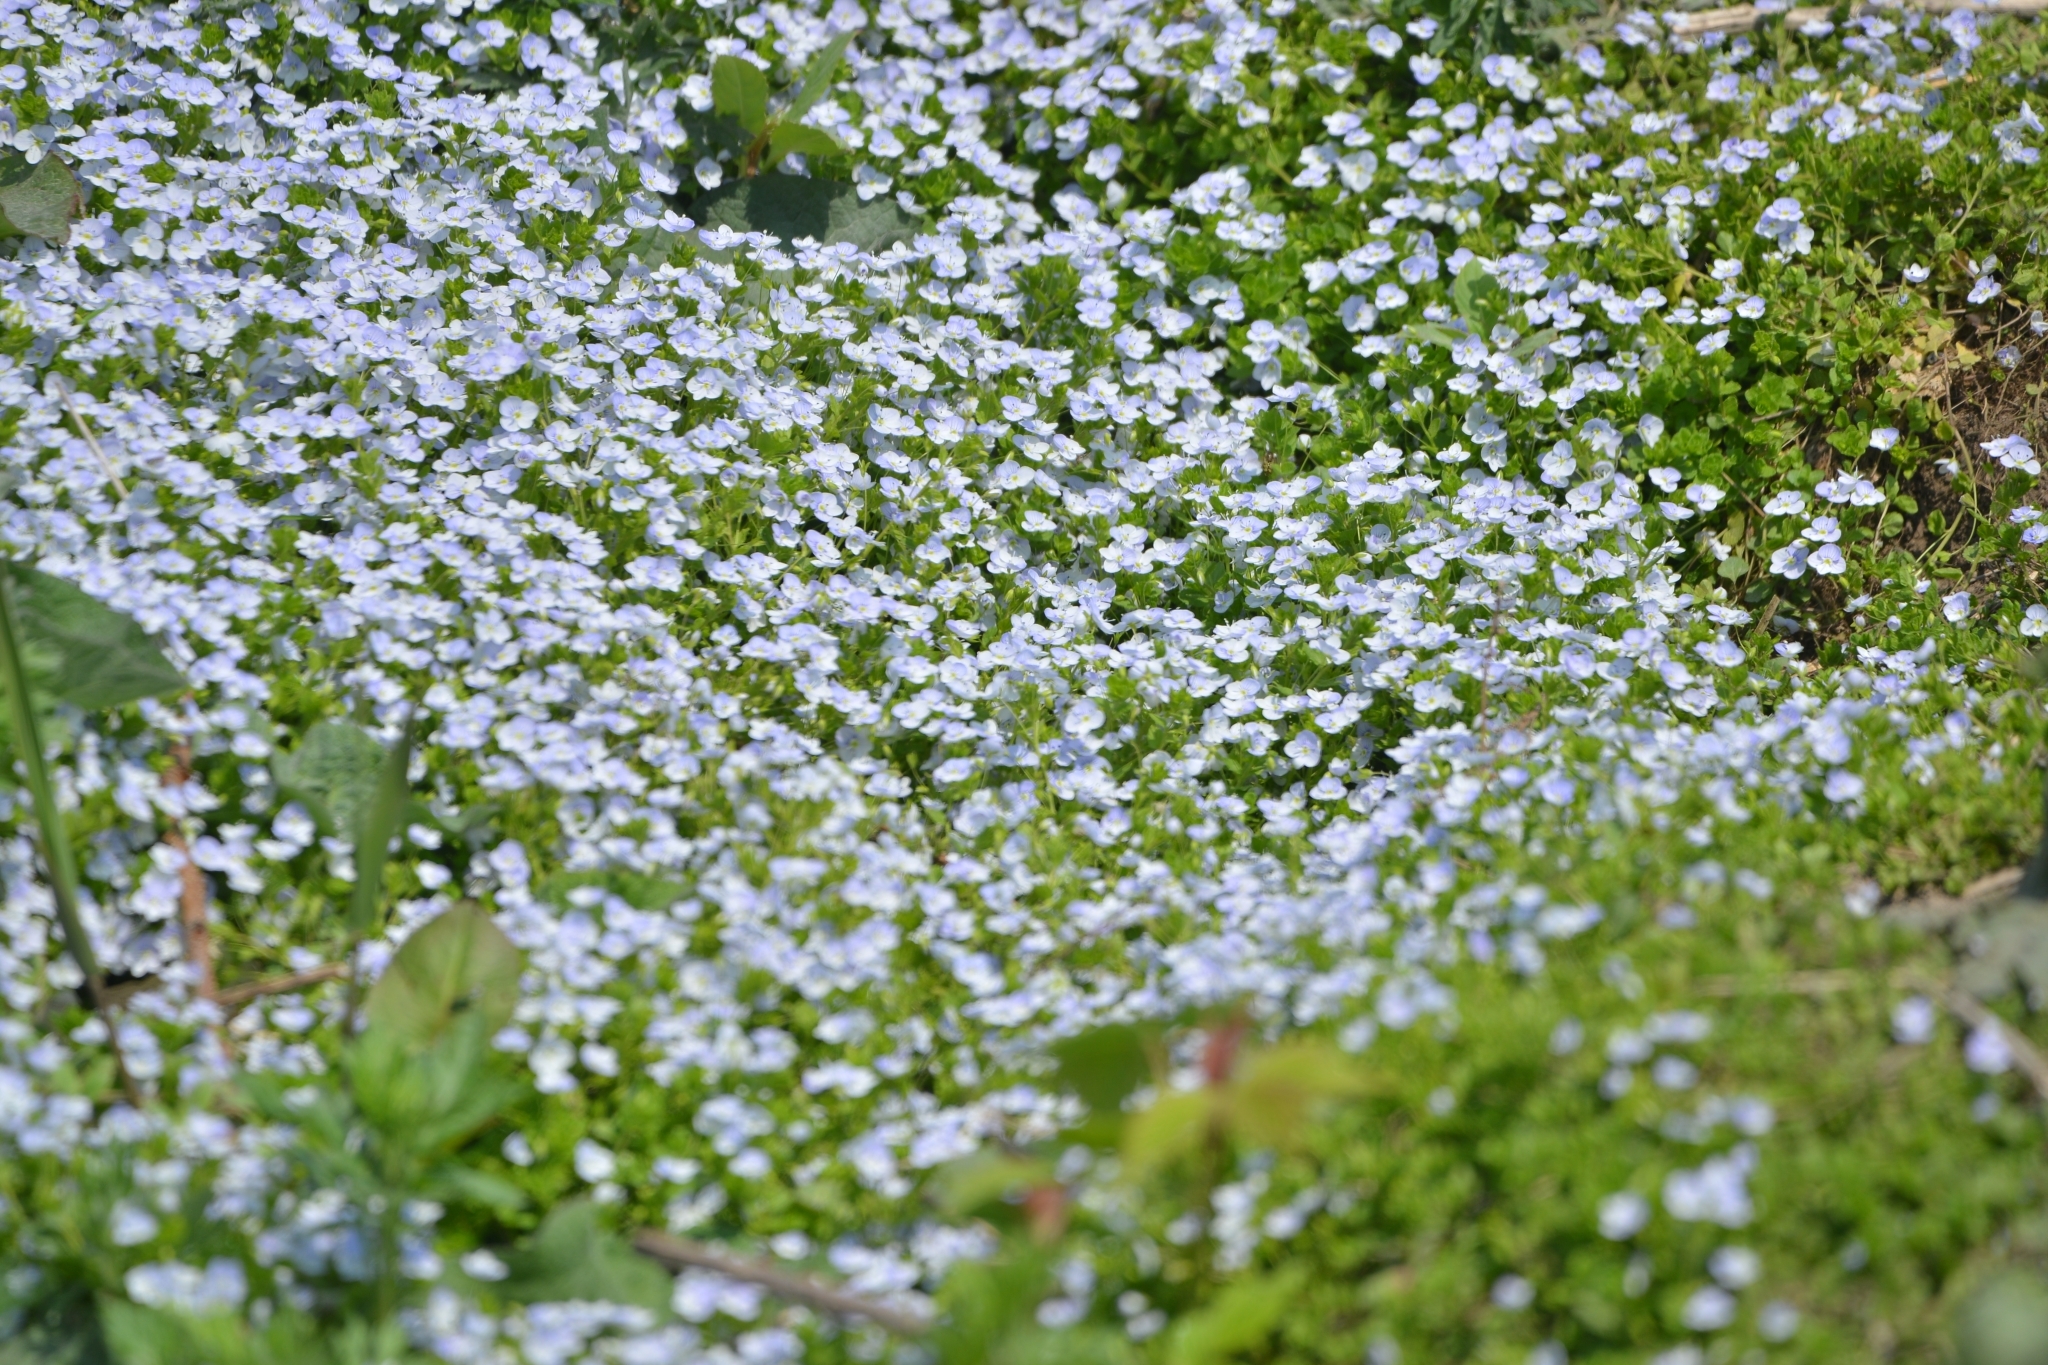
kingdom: Plantae
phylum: Tracheophyta
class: Magnoliopsida
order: Lamiales
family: Plantaginaceae
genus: Veronica
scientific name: Veronica filiformis
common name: Slender speedwell
